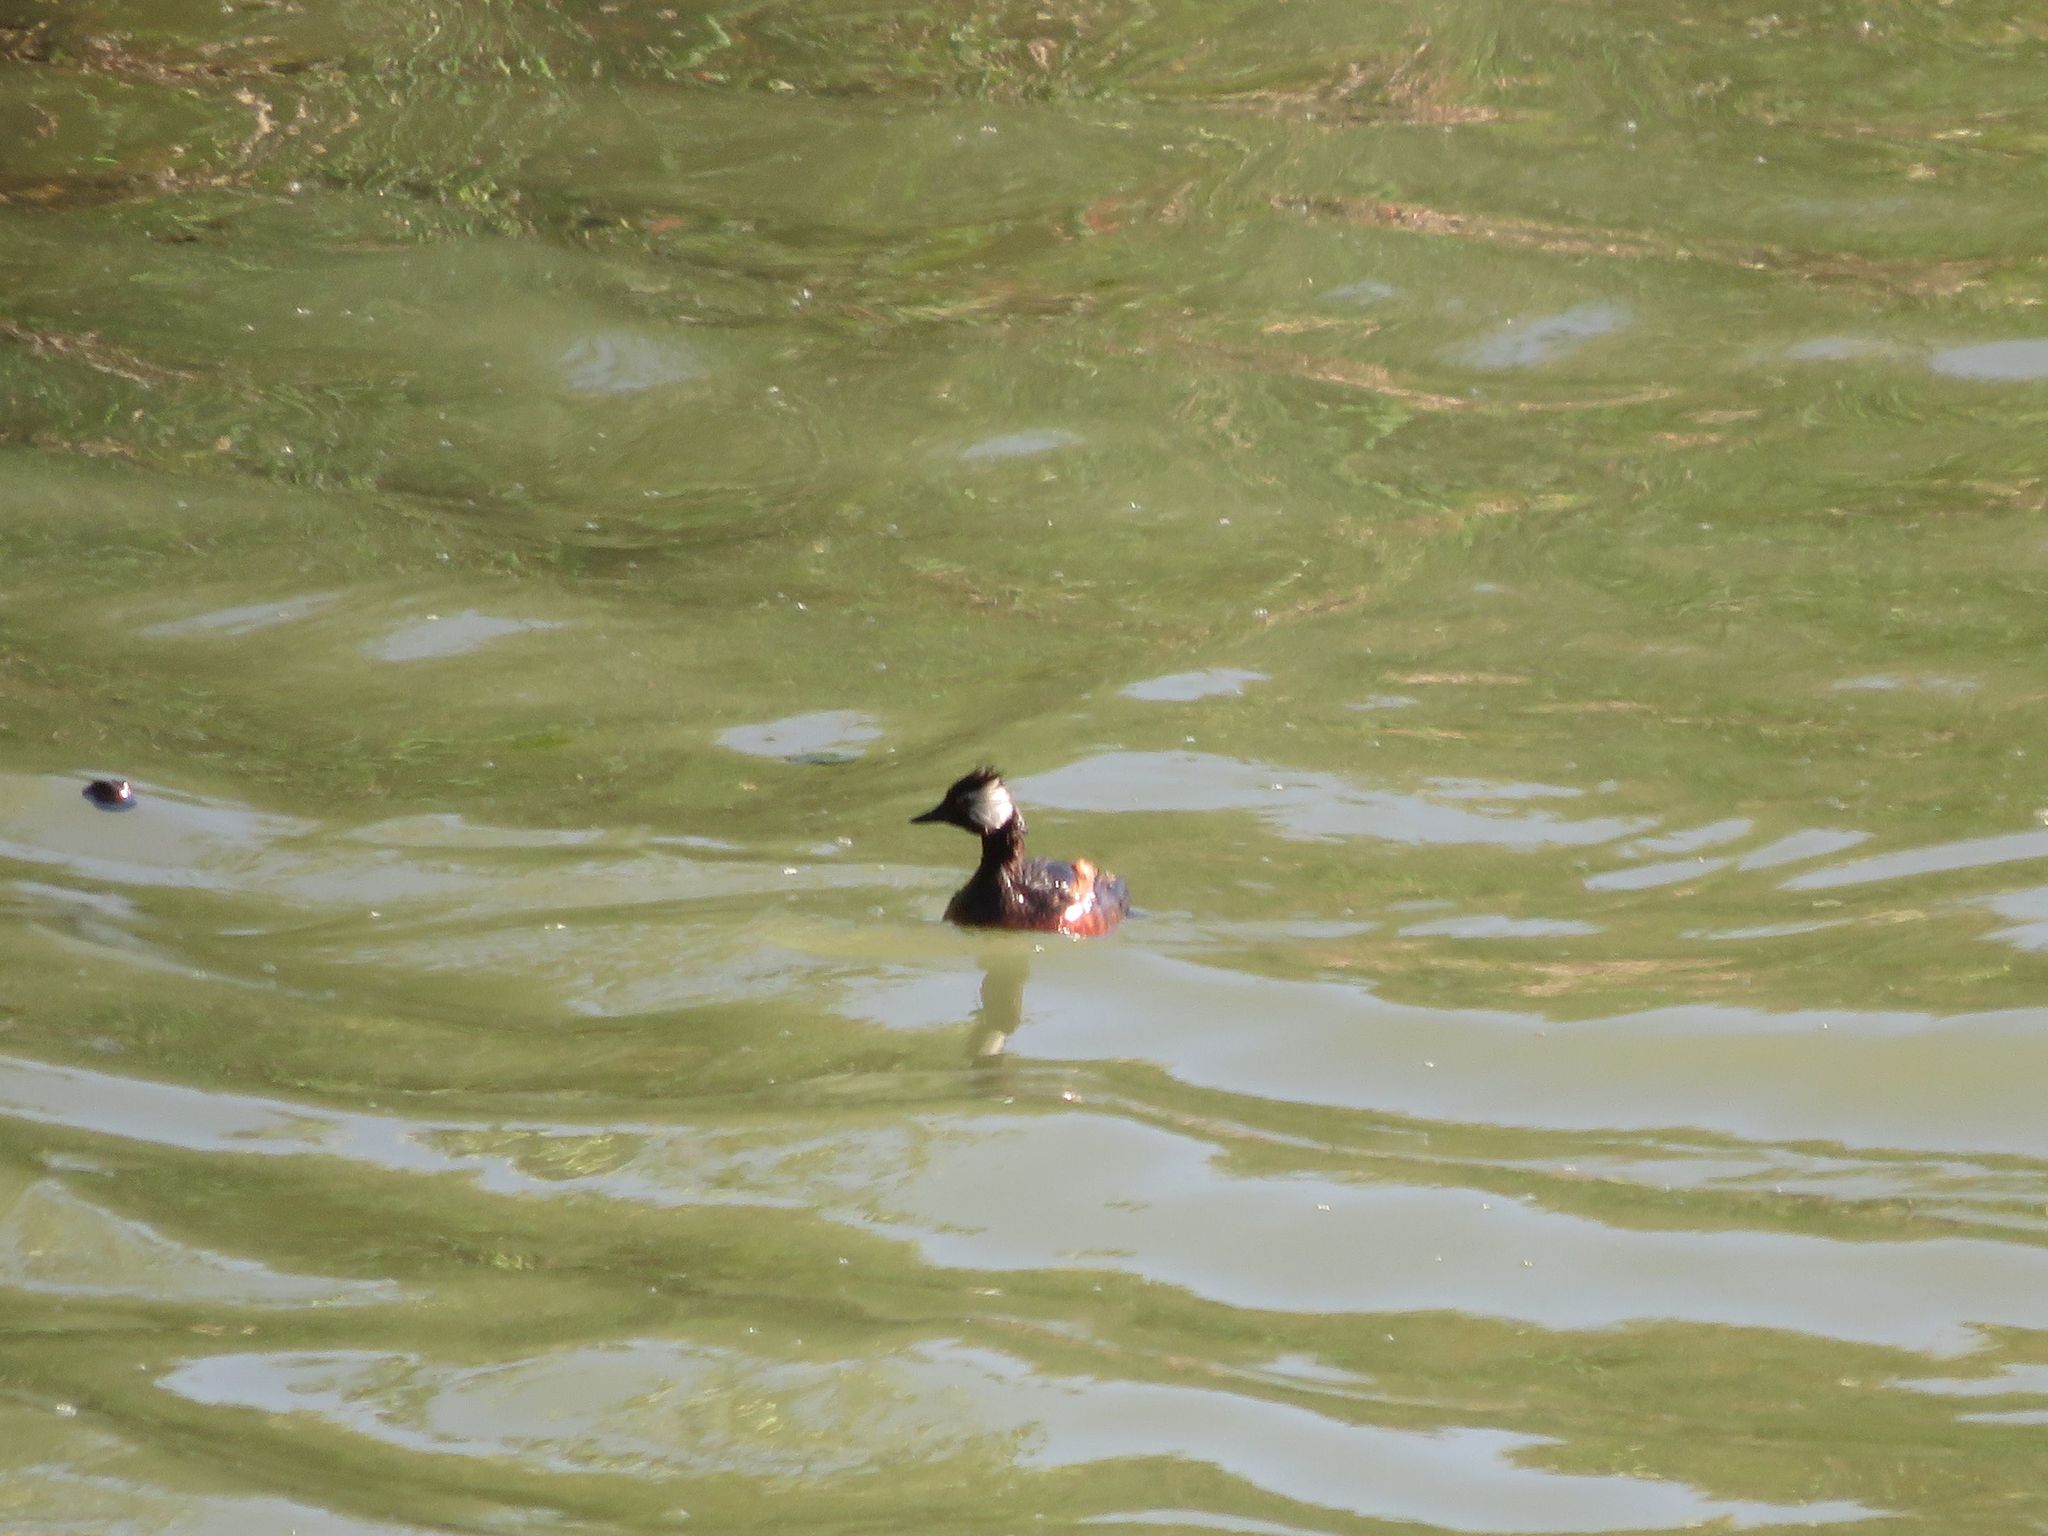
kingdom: Animalia
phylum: Chordata
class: Aves
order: Podicipediformes
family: Podicipedidae
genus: Rollandia
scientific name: Rollandia rolland
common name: White-tufted grebe
